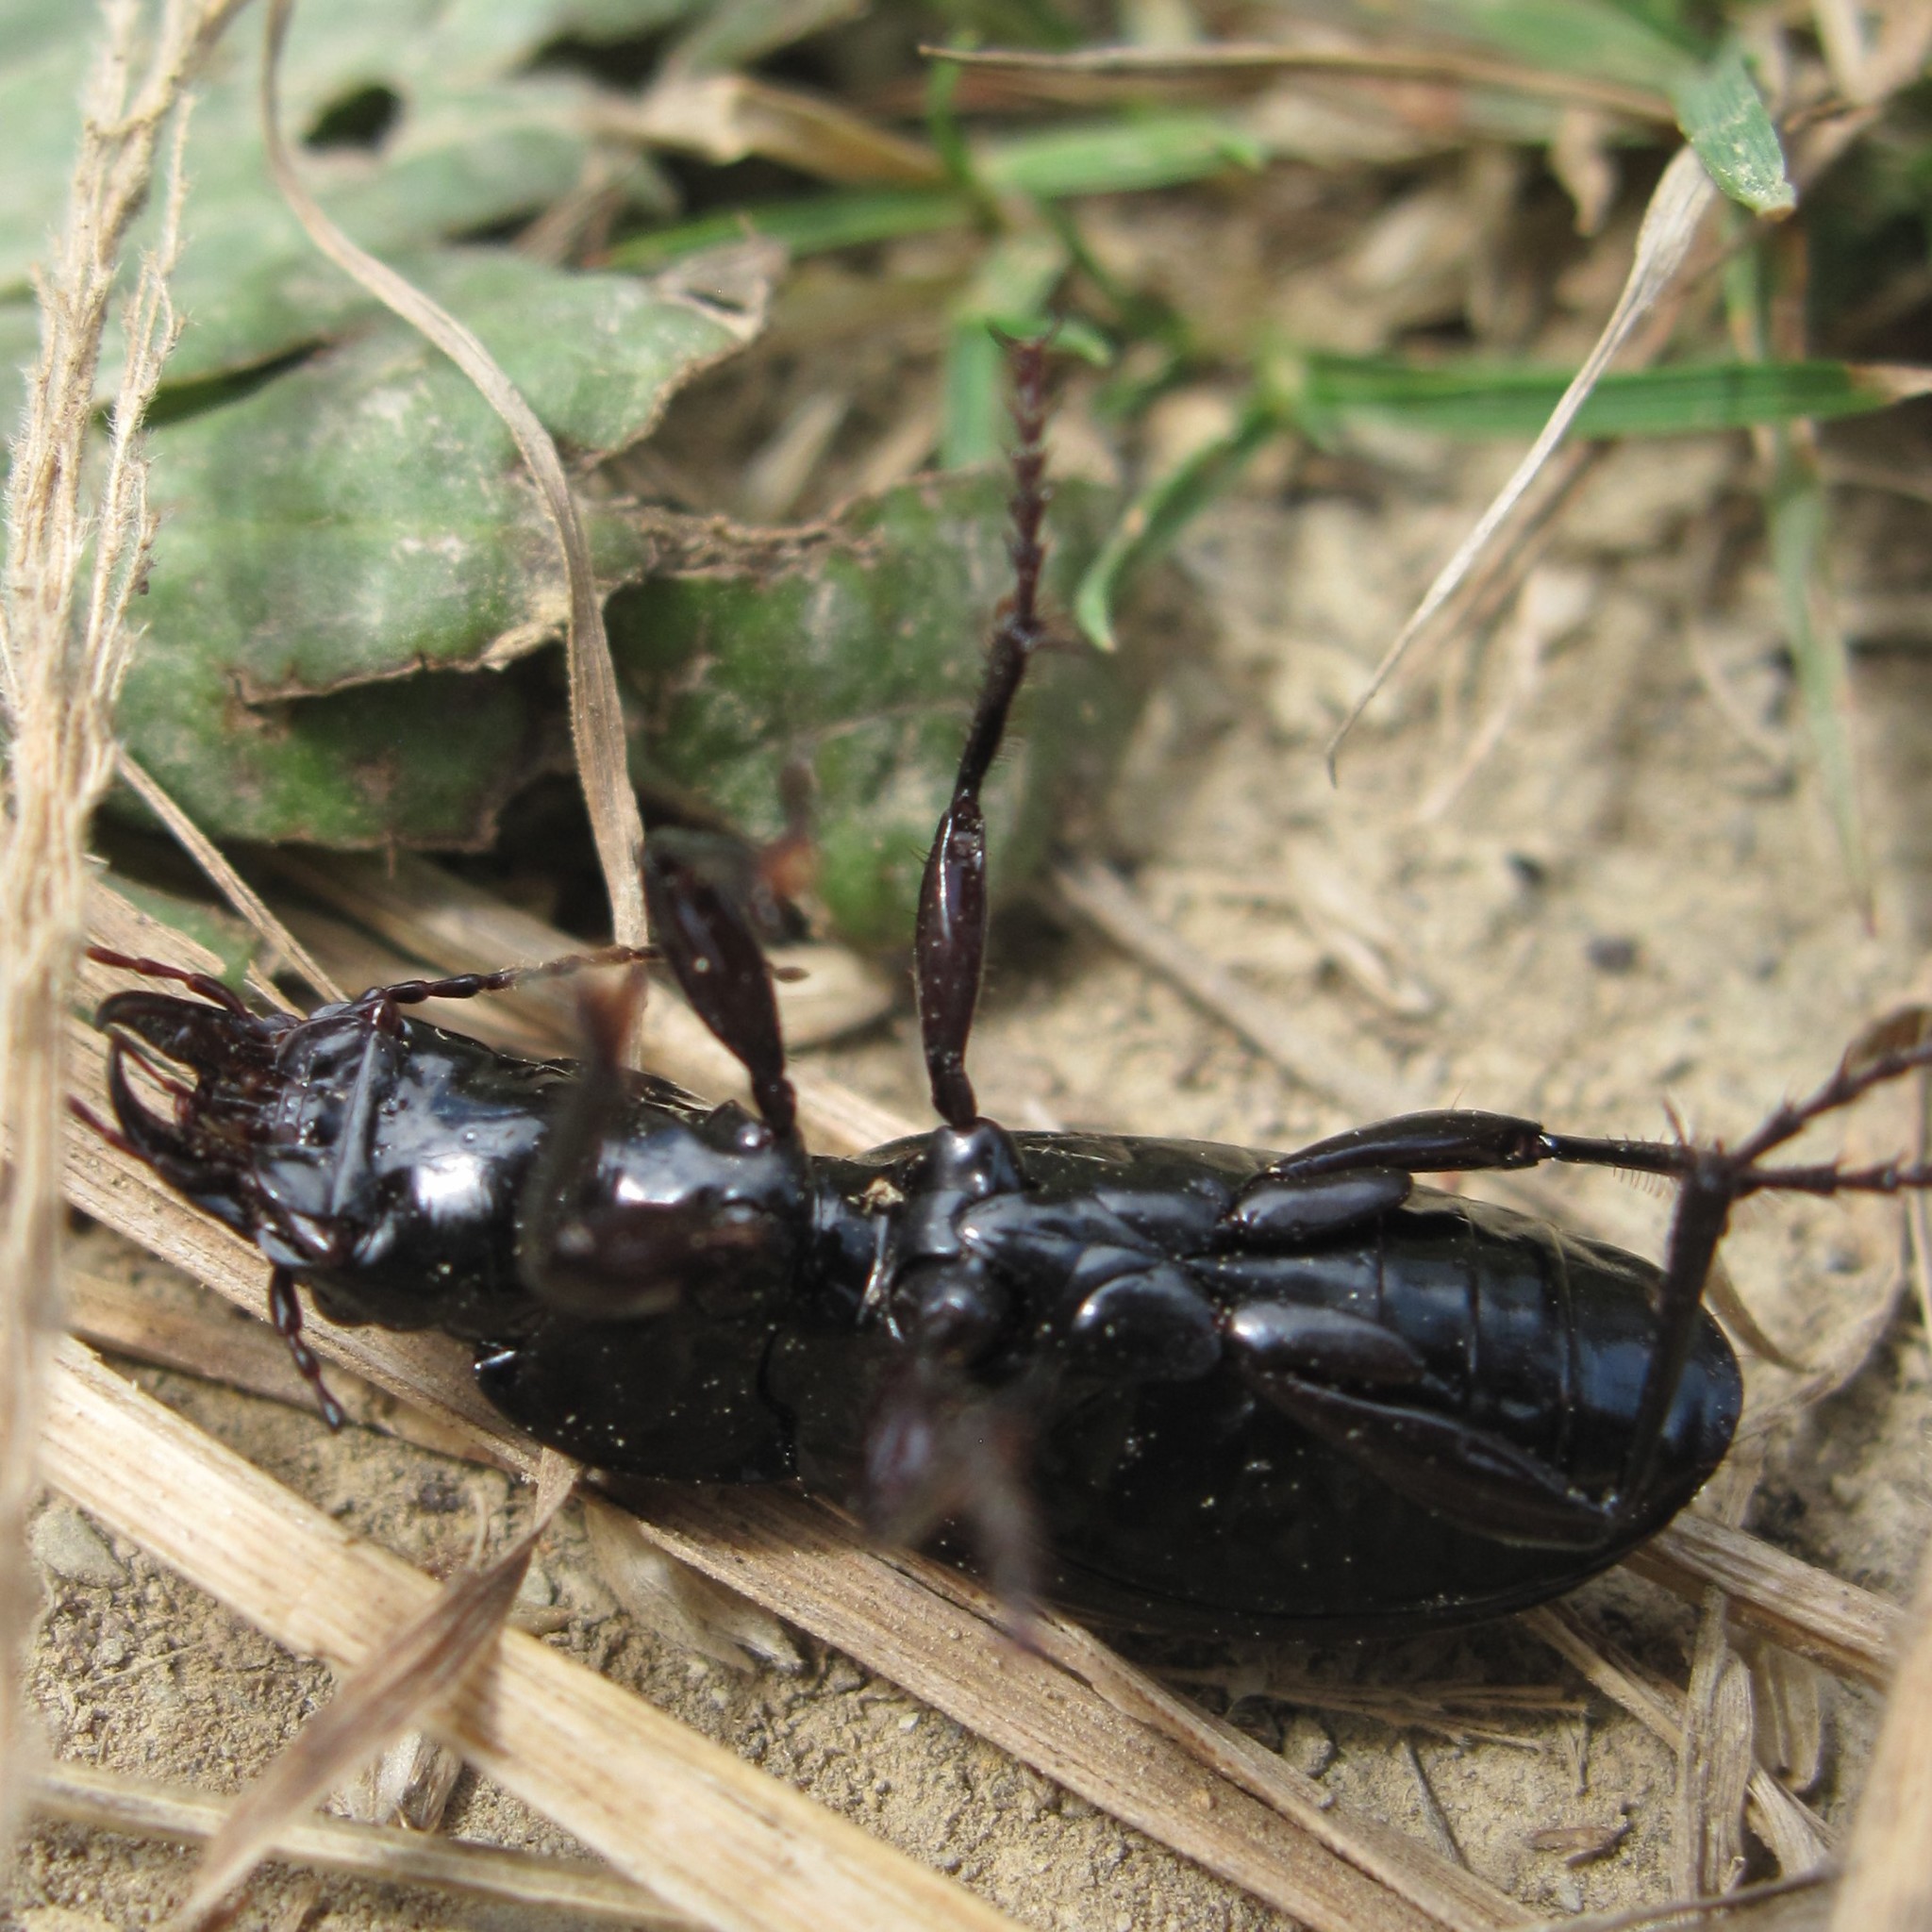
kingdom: Animalia
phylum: Arthropoda
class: Insecta
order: Coleoptera
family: Carabidae
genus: Plocamostethus
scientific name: Plocamostethus planiusculus
